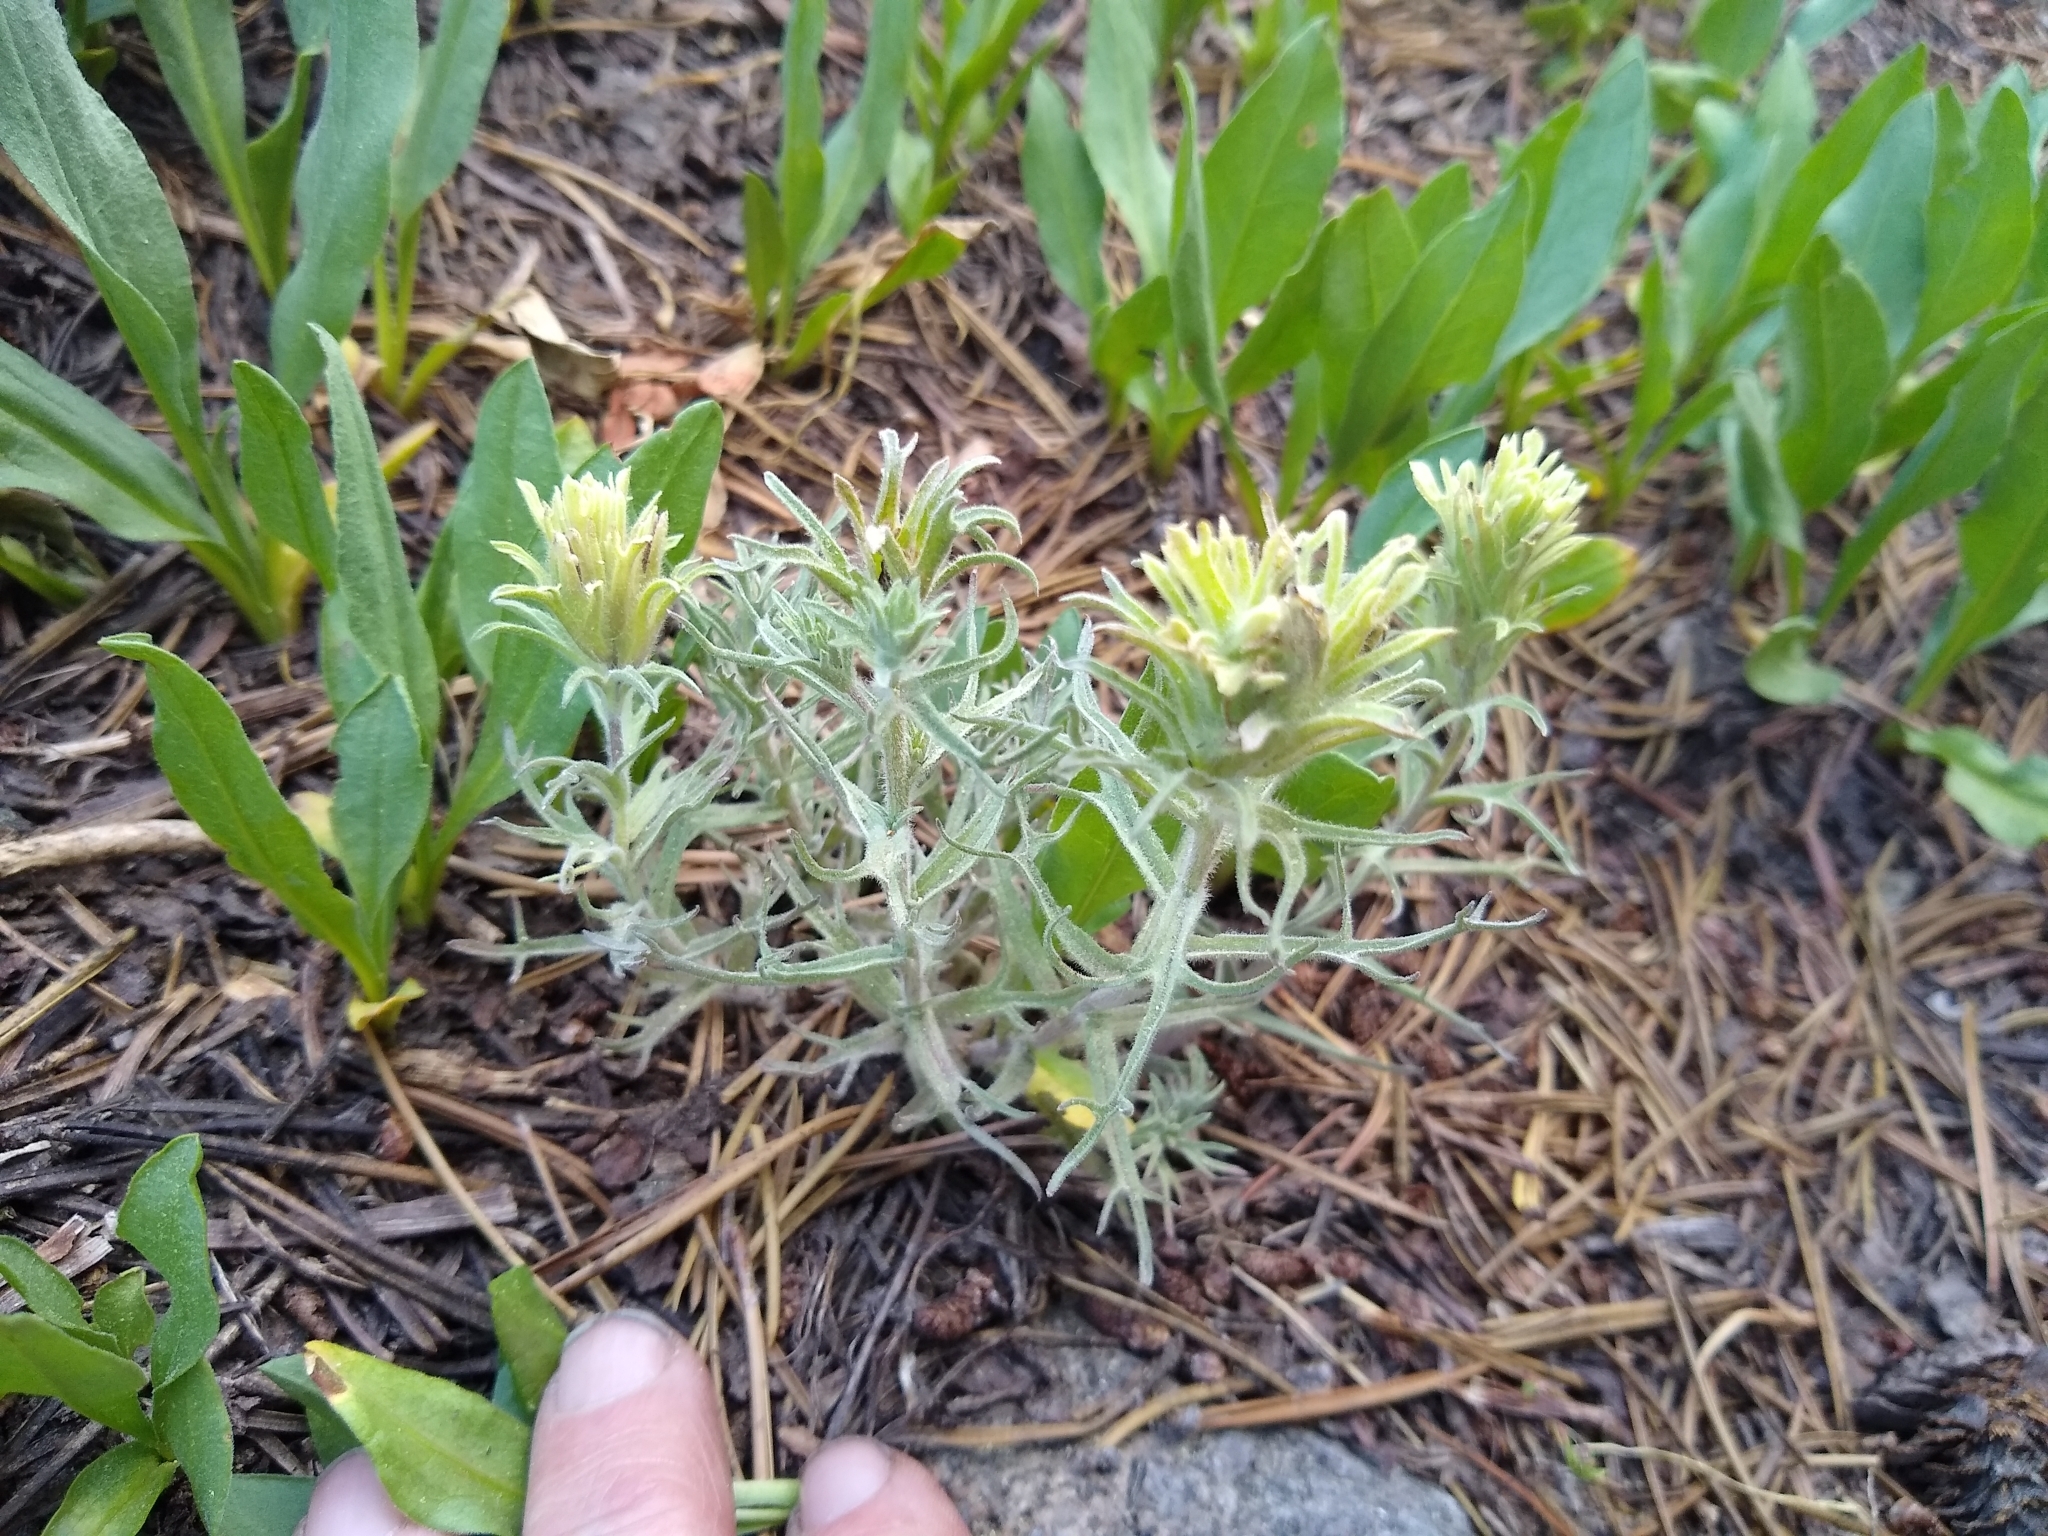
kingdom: Plantae
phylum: Tracheophyta
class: Magnoliopsida
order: Lamiales
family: Orobanchaceae
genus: Castilleja
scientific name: Castilleja nana
